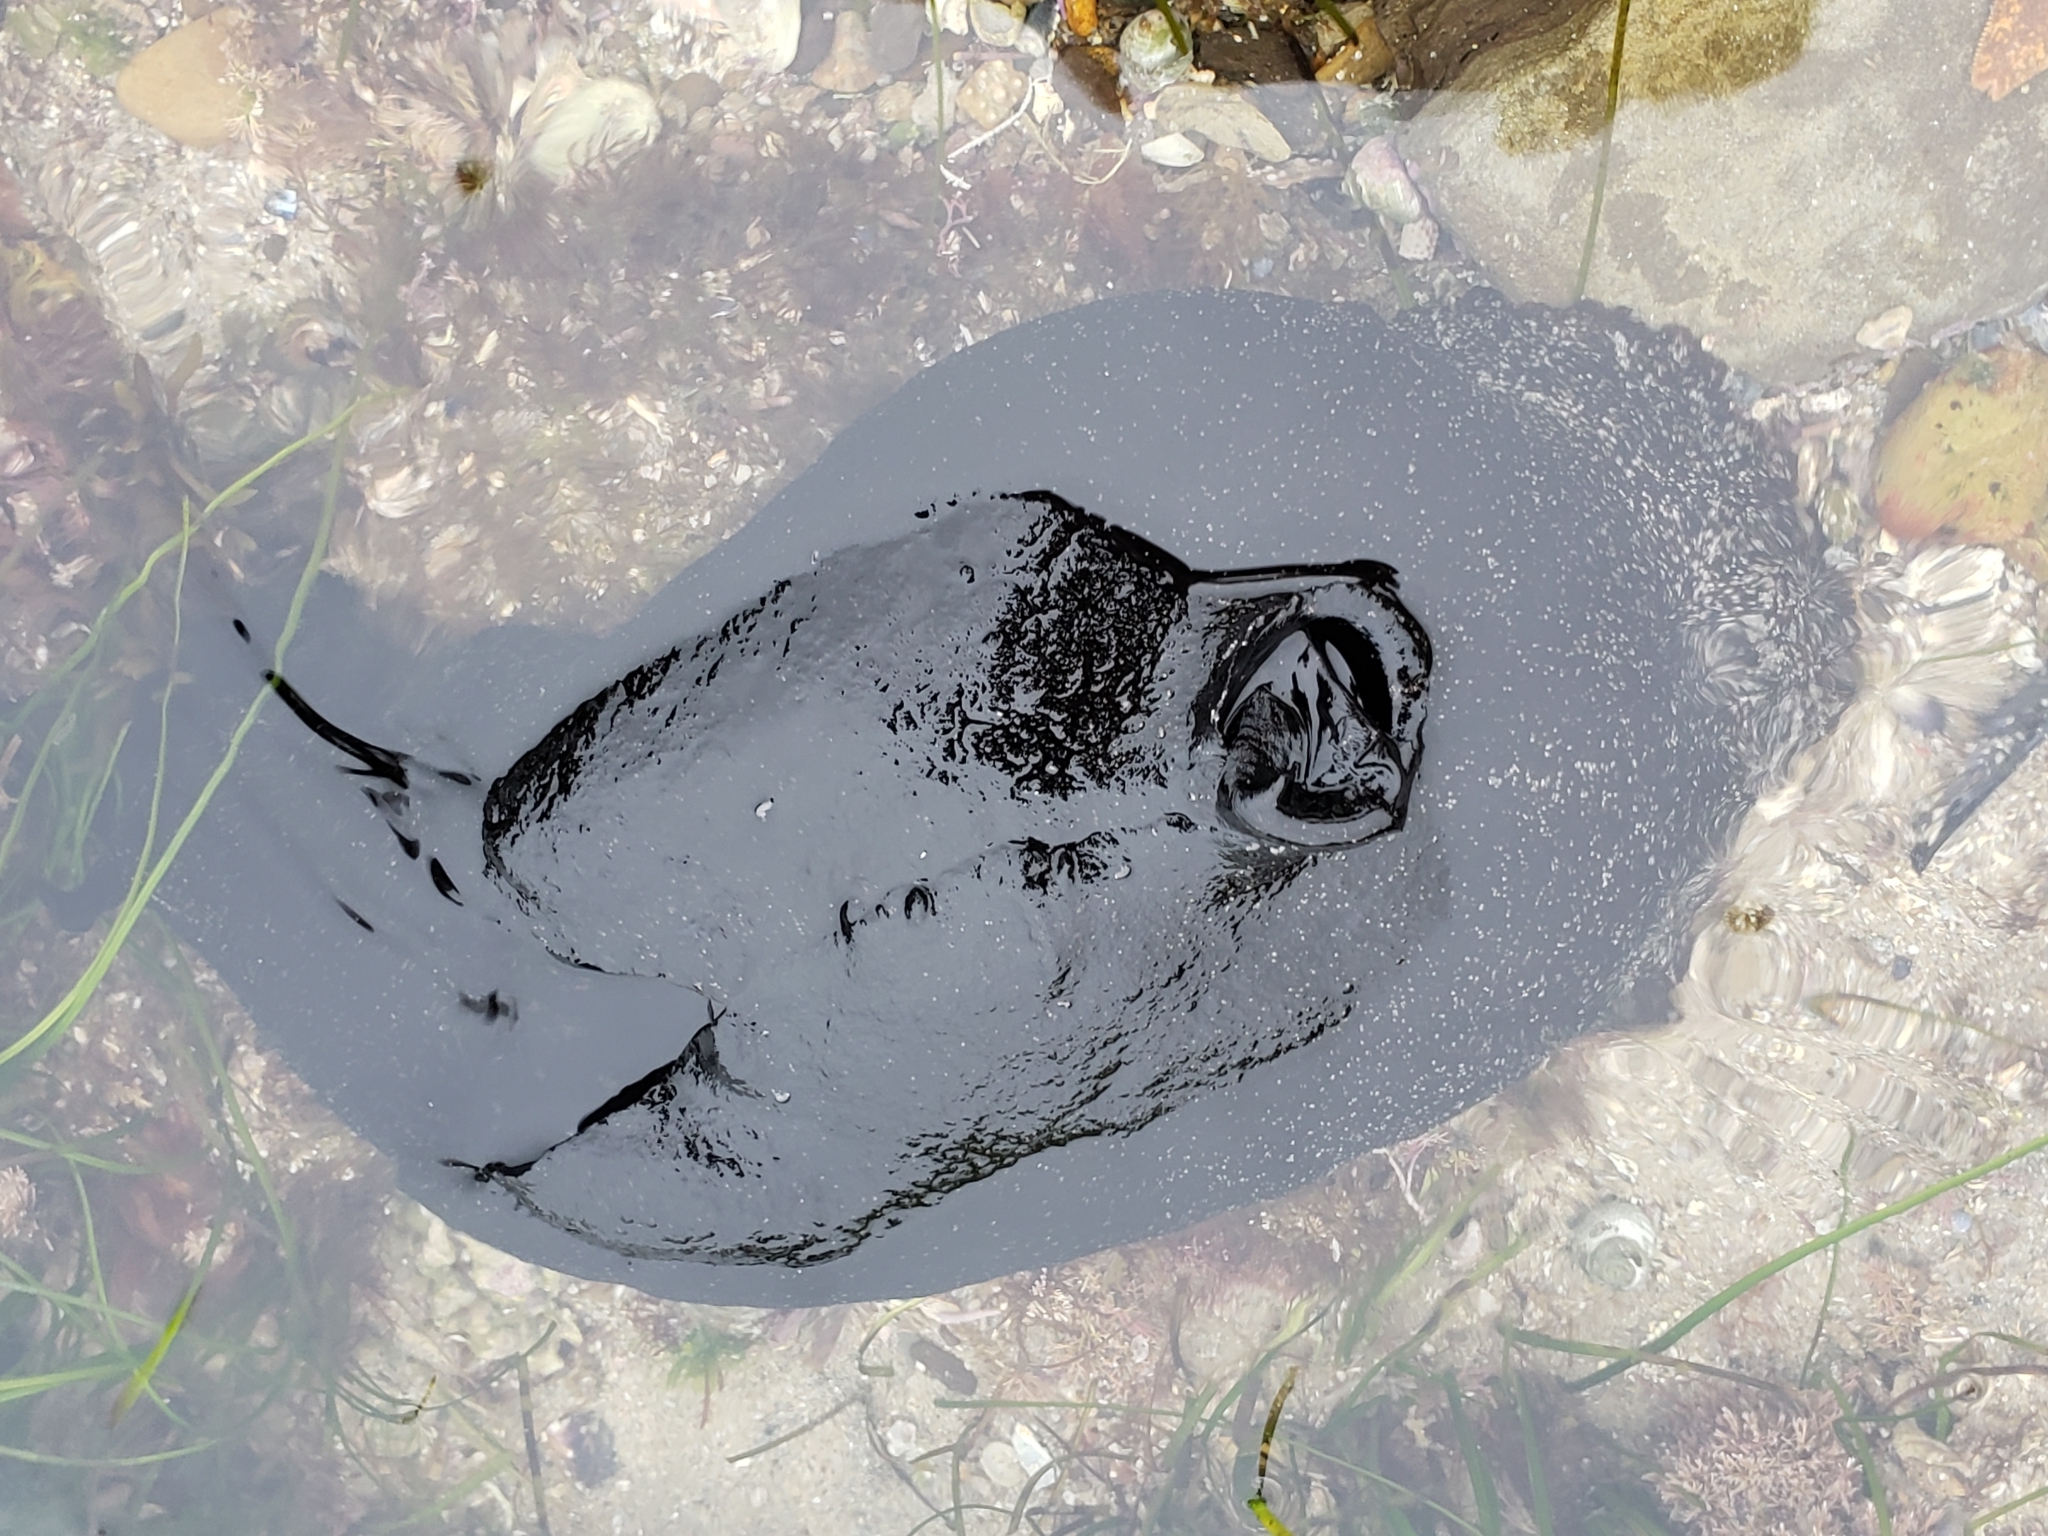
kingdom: Animalia
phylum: Mollusca
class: Gastropoda
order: Aplysiida
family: Aplysiidae
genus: Aplysia
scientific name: Aplysia vaccaria
